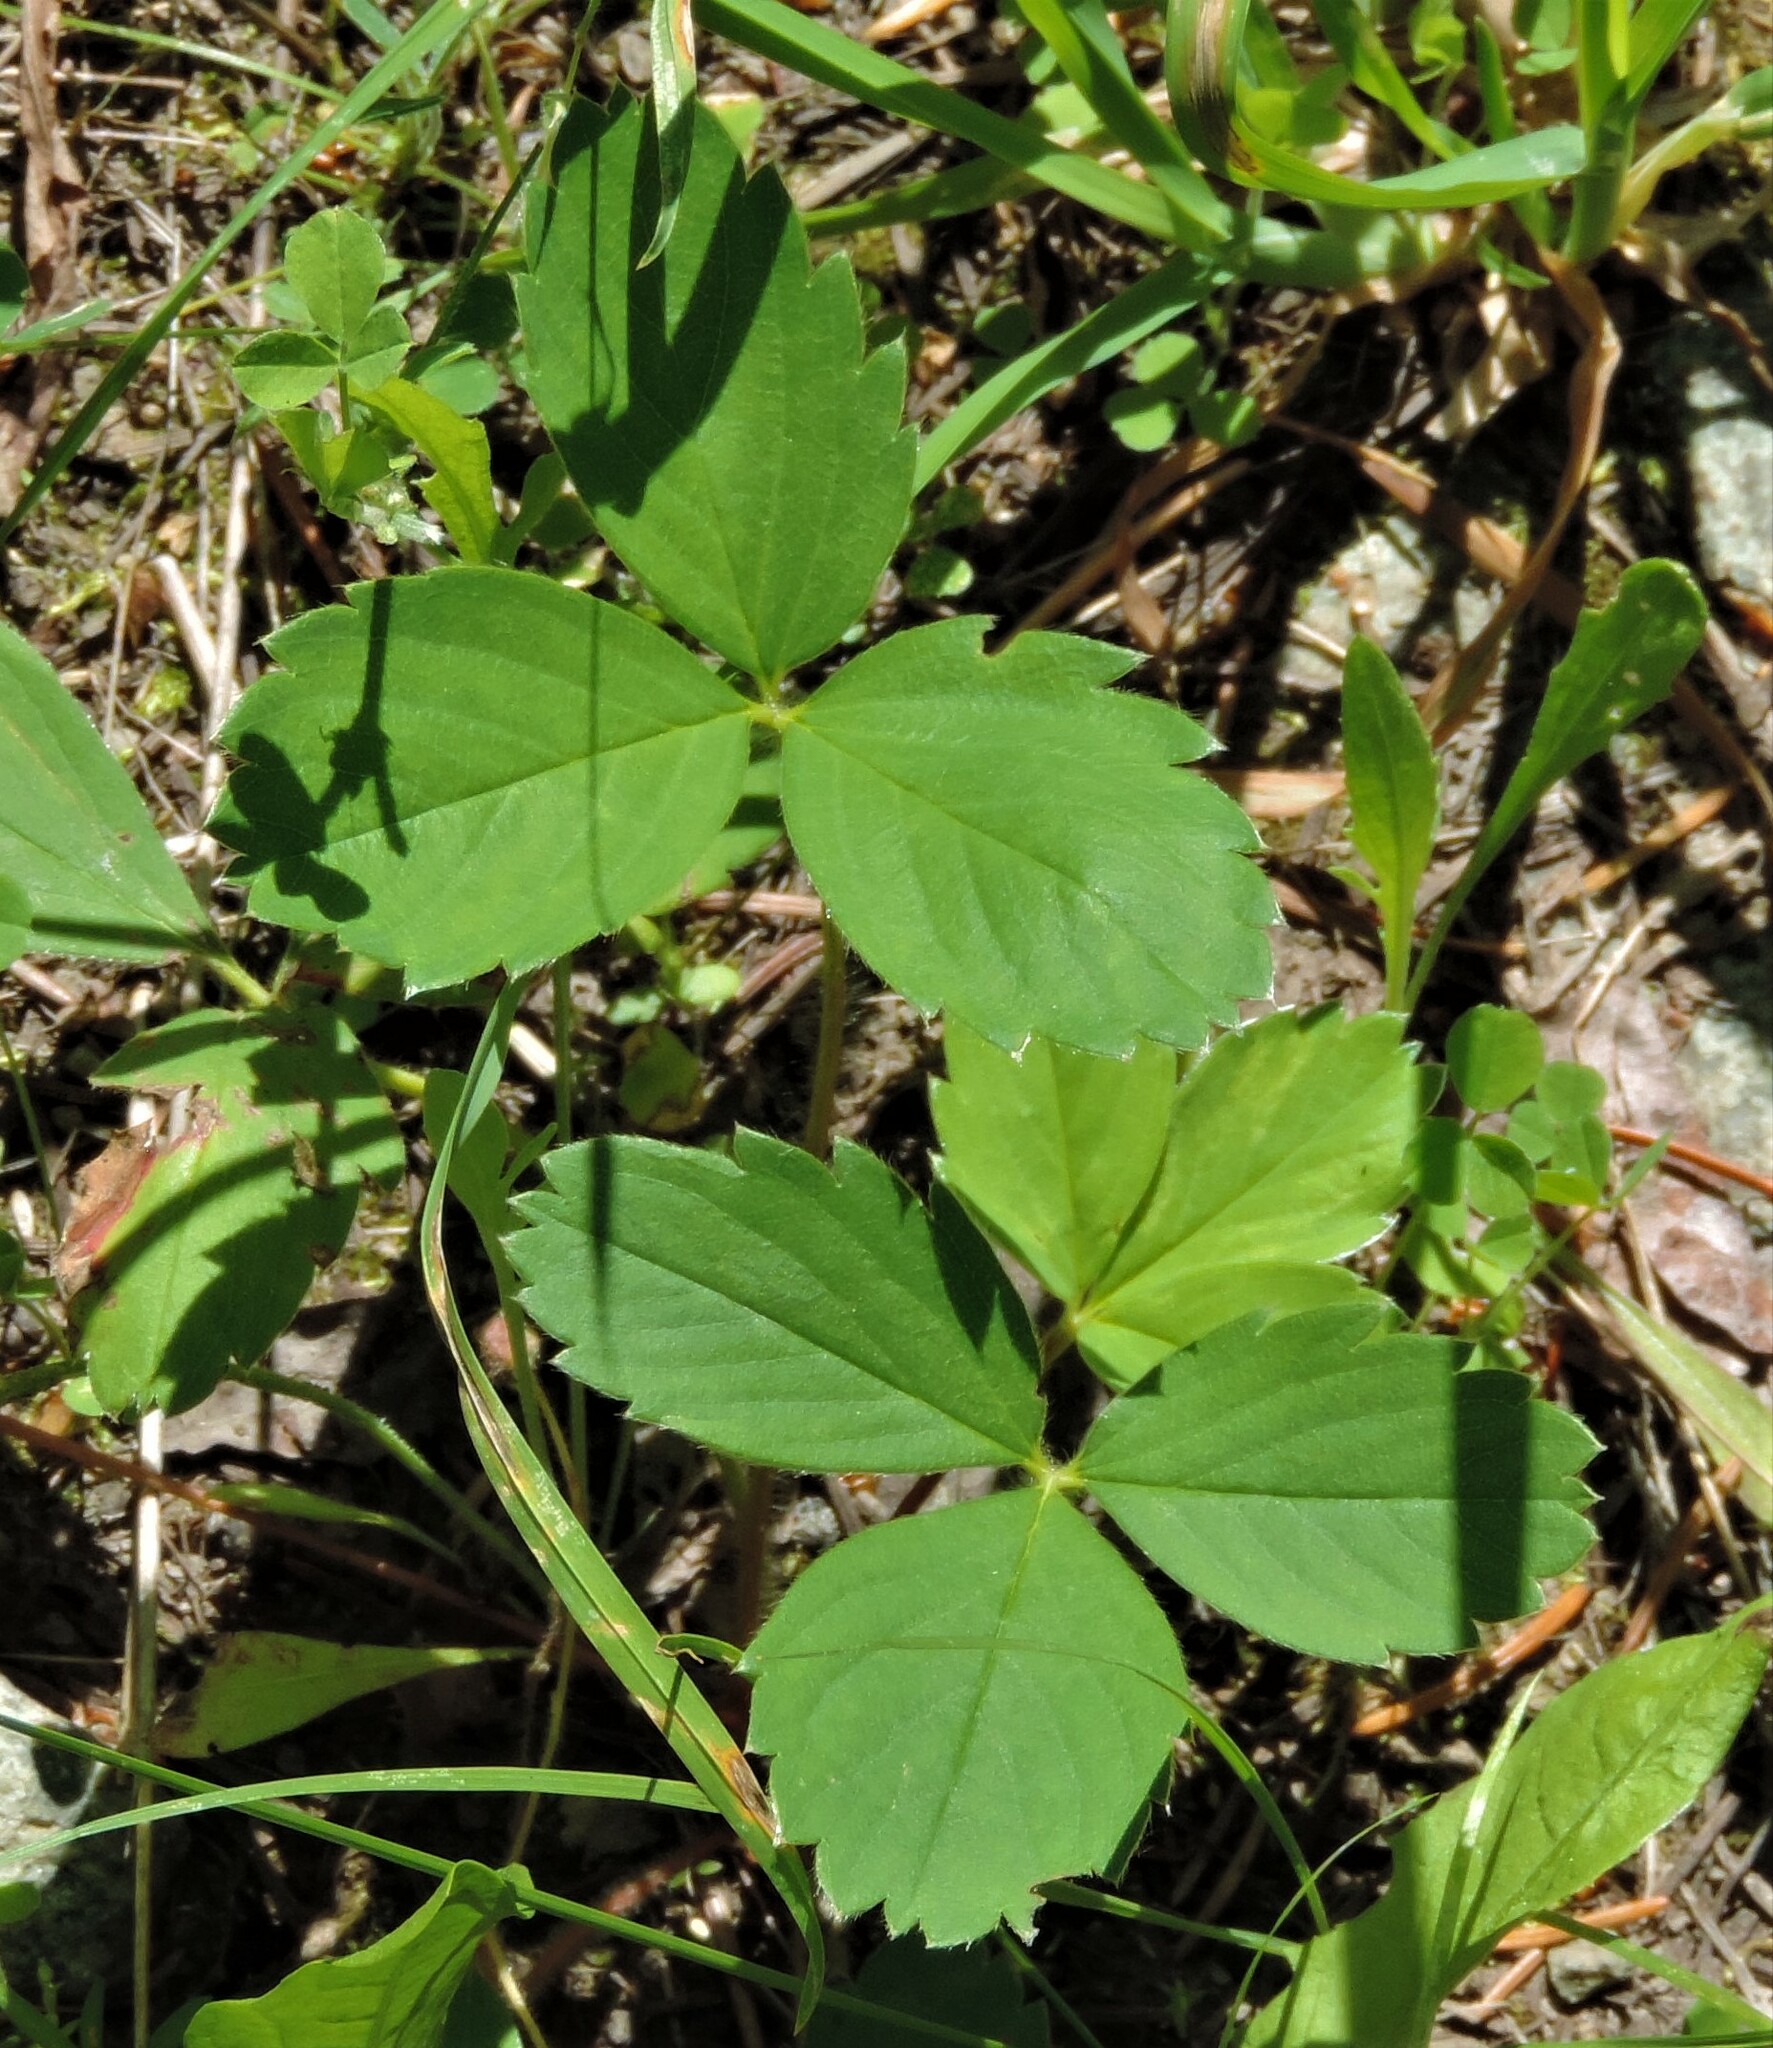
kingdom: Plantae
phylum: Tracheophyta
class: Magnoliopsida
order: Rosales
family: Rosaceae
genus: Fragaria
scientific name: Fragaria virginiana
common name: Thickleaved wild strawberry
